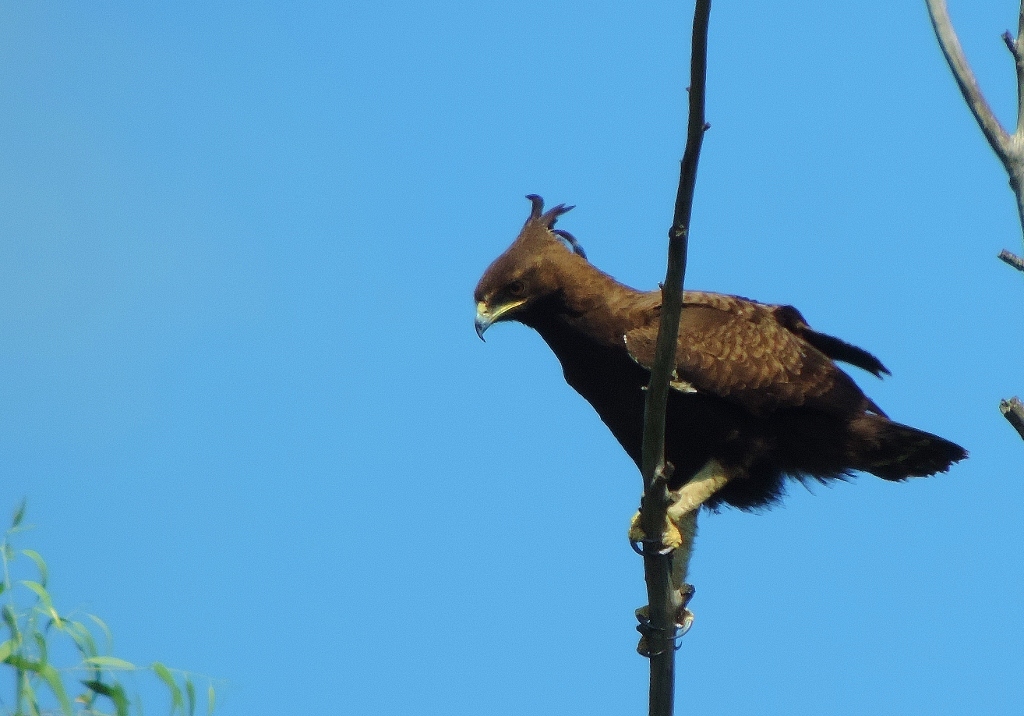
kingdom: Animalia
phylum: Chordata
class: Aves
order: Accipitriformes
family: Accipitridae
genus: Lophaetus
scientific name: Lophaetus occipitalis
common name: Long-crested eagle
